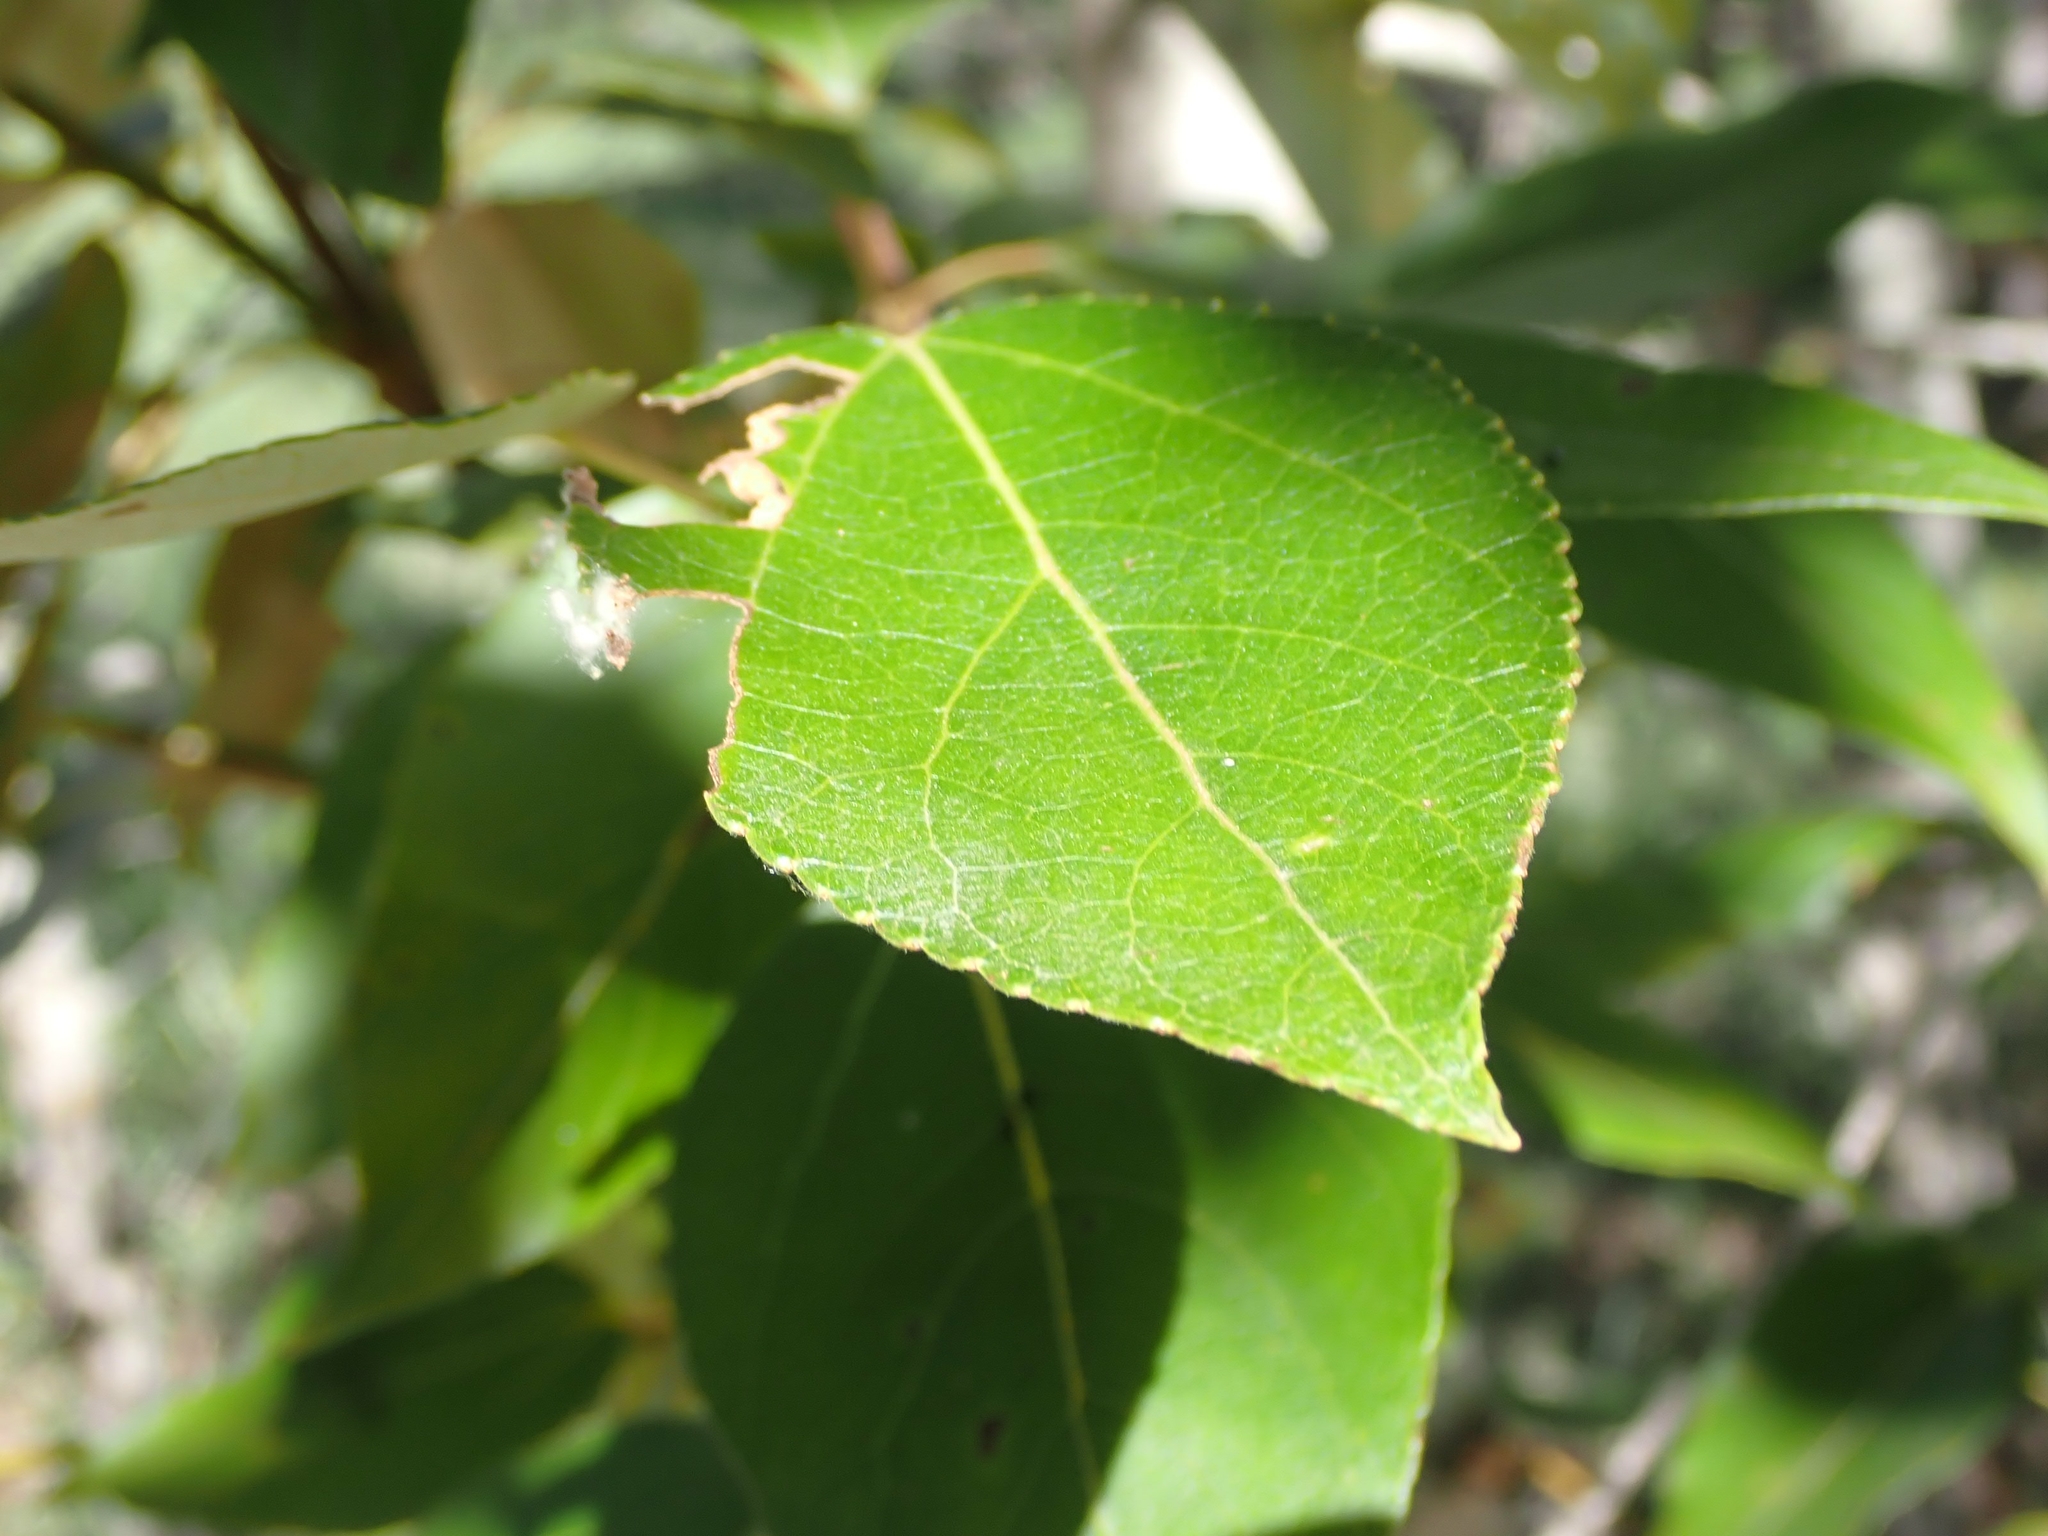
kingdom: Plantae
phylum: Tracheophyta
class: Magnoliopsida
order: Malpighiales
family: Salicaceae
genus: Populus
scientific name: Populus balsamifera
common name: Balsam poplar
